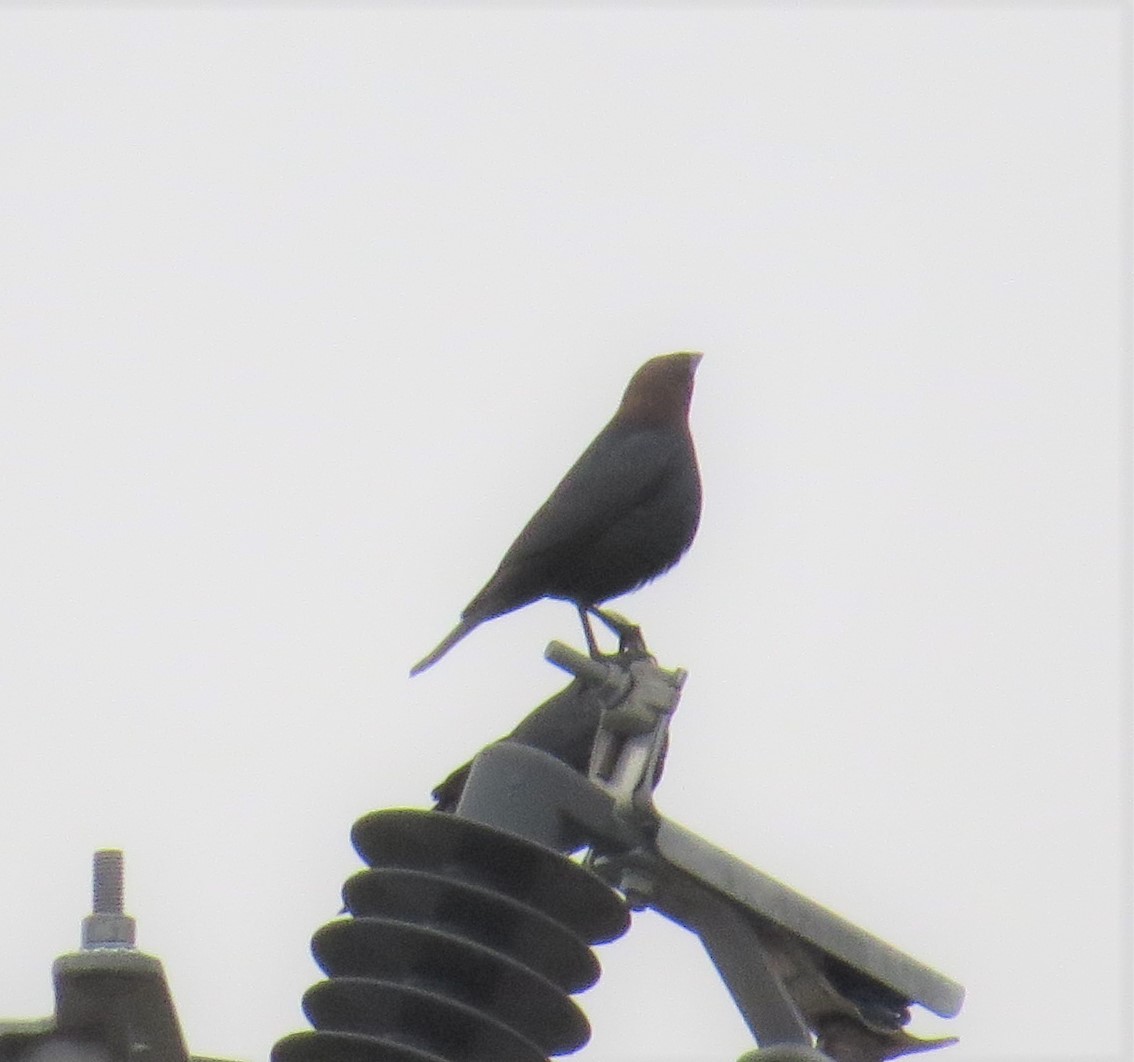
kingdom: Animalia
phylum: Chordata
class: Aves
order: Passeriformes
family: Icteridae
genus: Molothrus
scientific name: Molothrus ater
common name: Brown-headed cowbird
